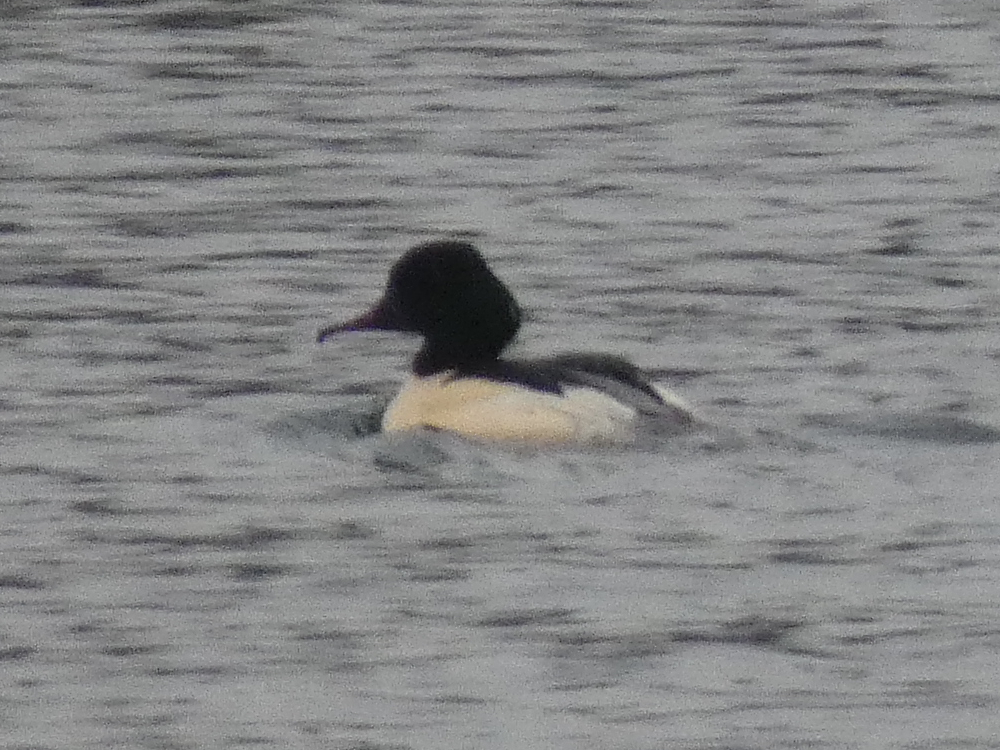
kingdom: Animalia
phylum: Chordata
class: Aves
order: Anseriformes
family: Anatidae
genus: Mergus
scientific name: Mergus merganser
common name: Common merganser
